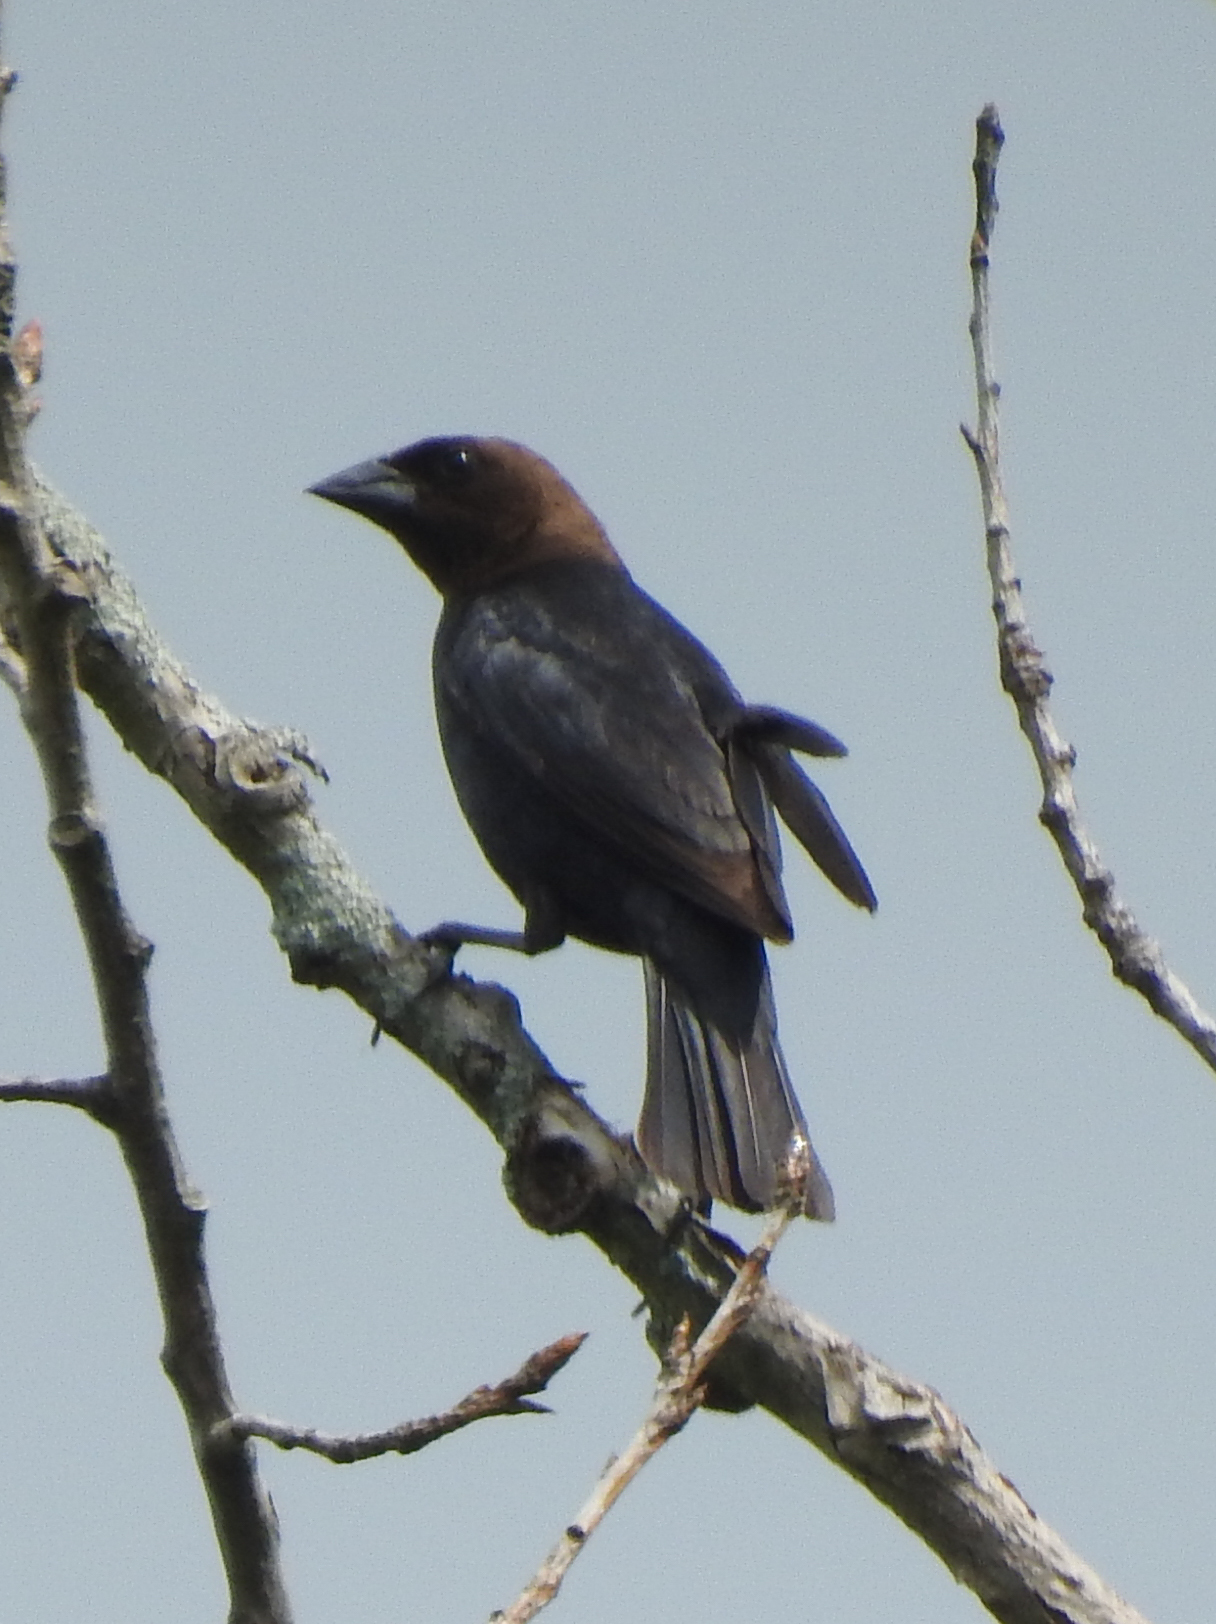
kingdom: Animalia
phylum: Chordata
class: Aves
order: Passeriformes
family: Icteridae
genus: Molothrus
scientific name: Molothrus ater
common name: Brown-headed cowbird
